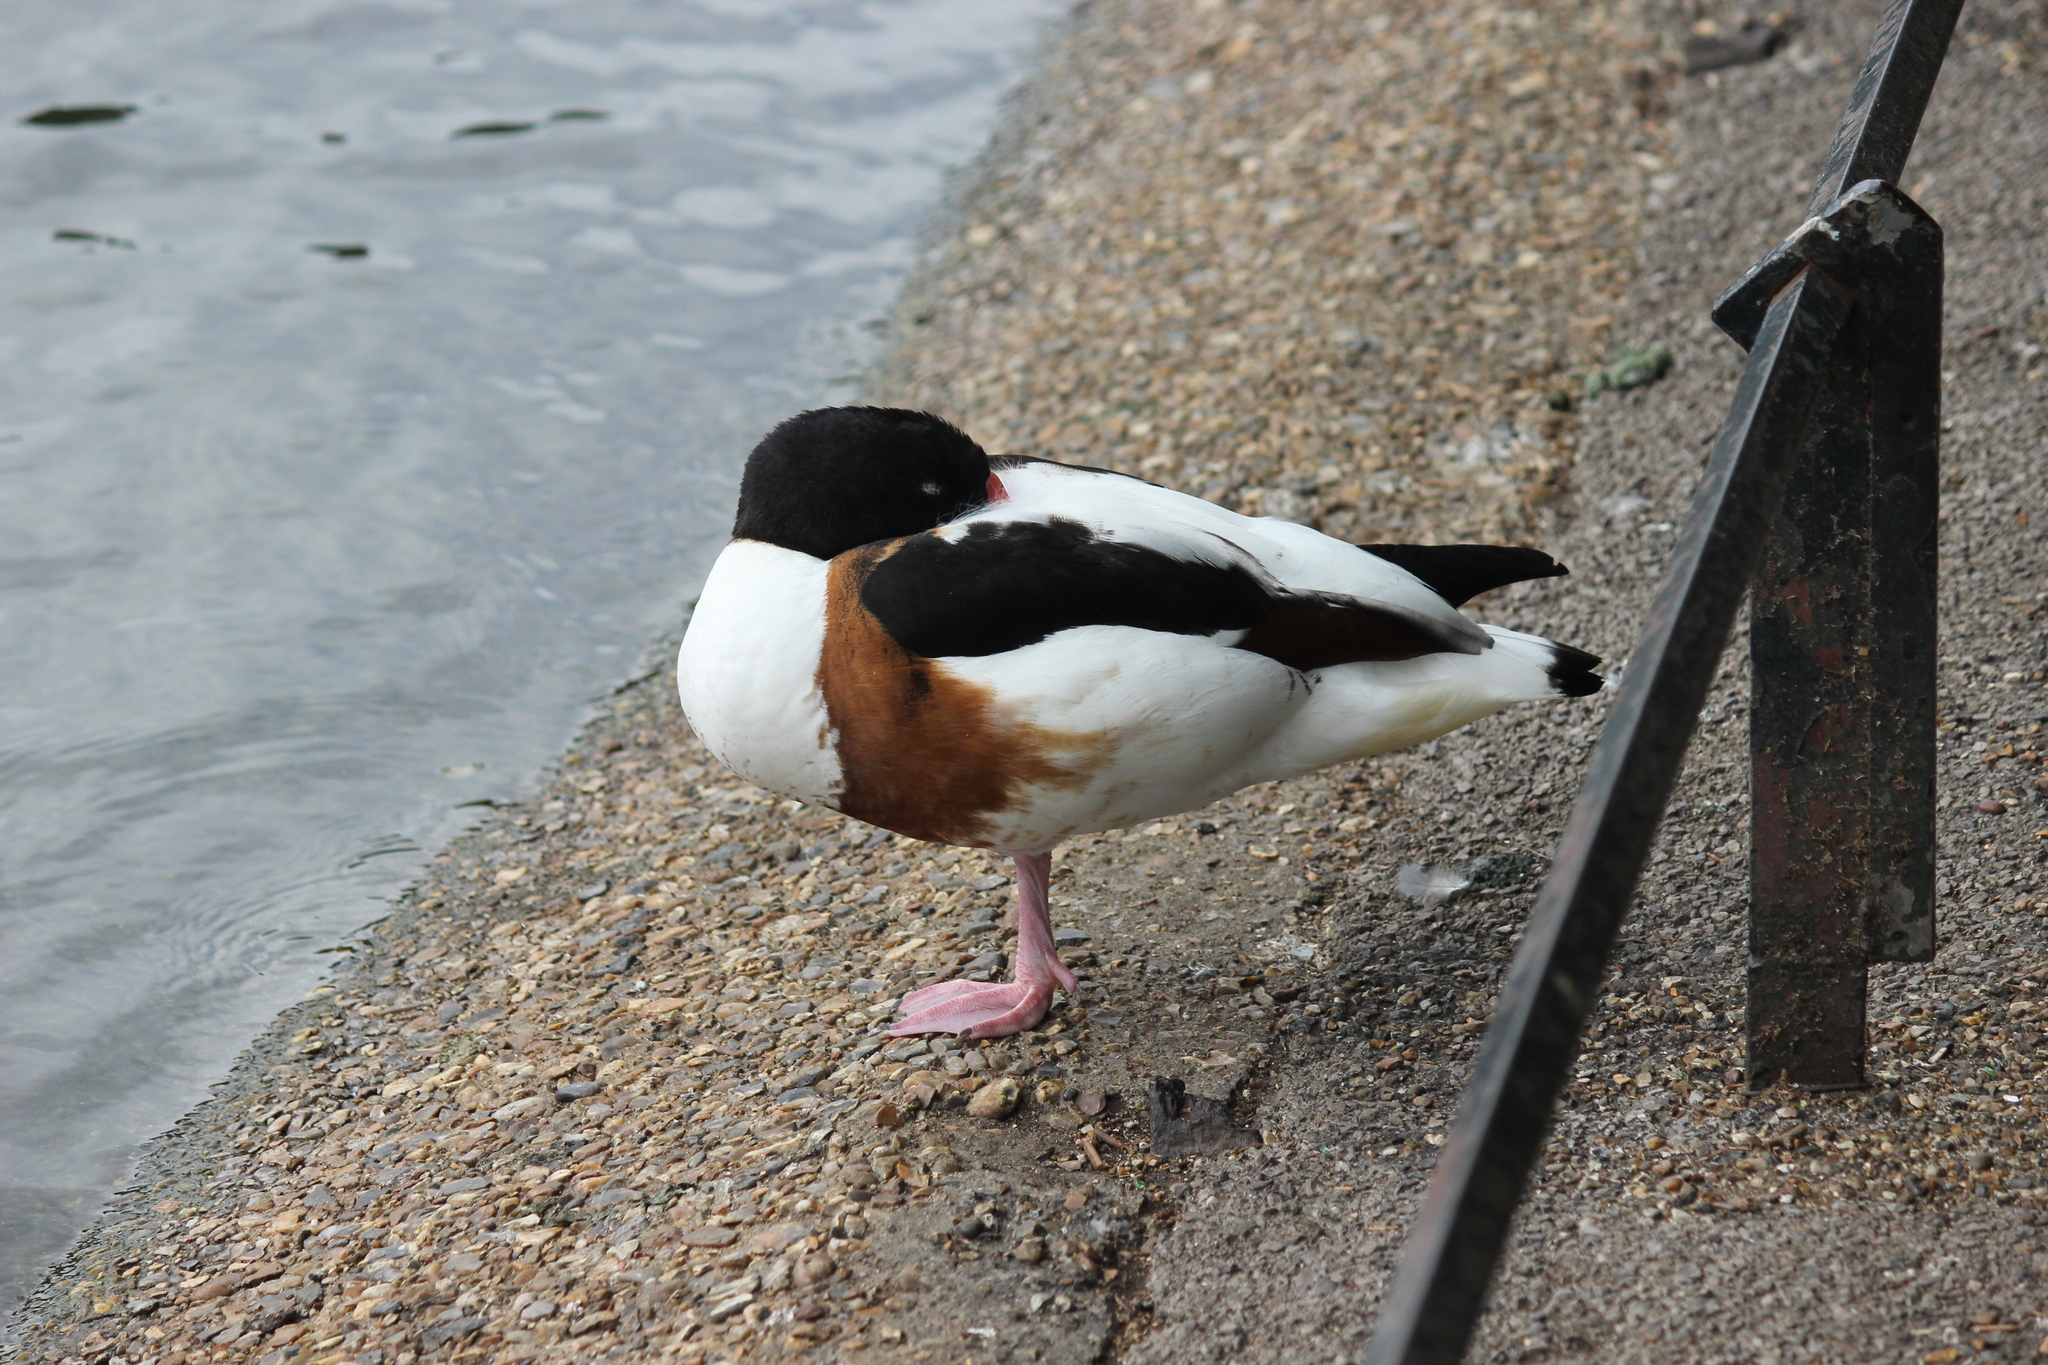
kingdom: Animalia
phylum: Chordata
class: Aves
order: Anseriformes
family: Anatidae
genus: Tadorna
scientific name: Tadorna tadorna
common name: Common shelduck
